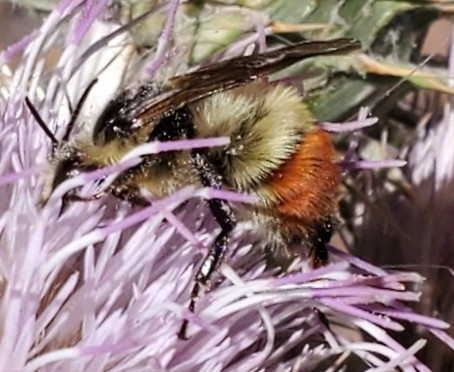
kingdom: Animalia
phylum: Arthropoda
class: Insecta
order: Hymenoptera
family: Apidae
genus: Bombus
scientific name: Bombus flavifrons
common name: Yellow head bumble bee
